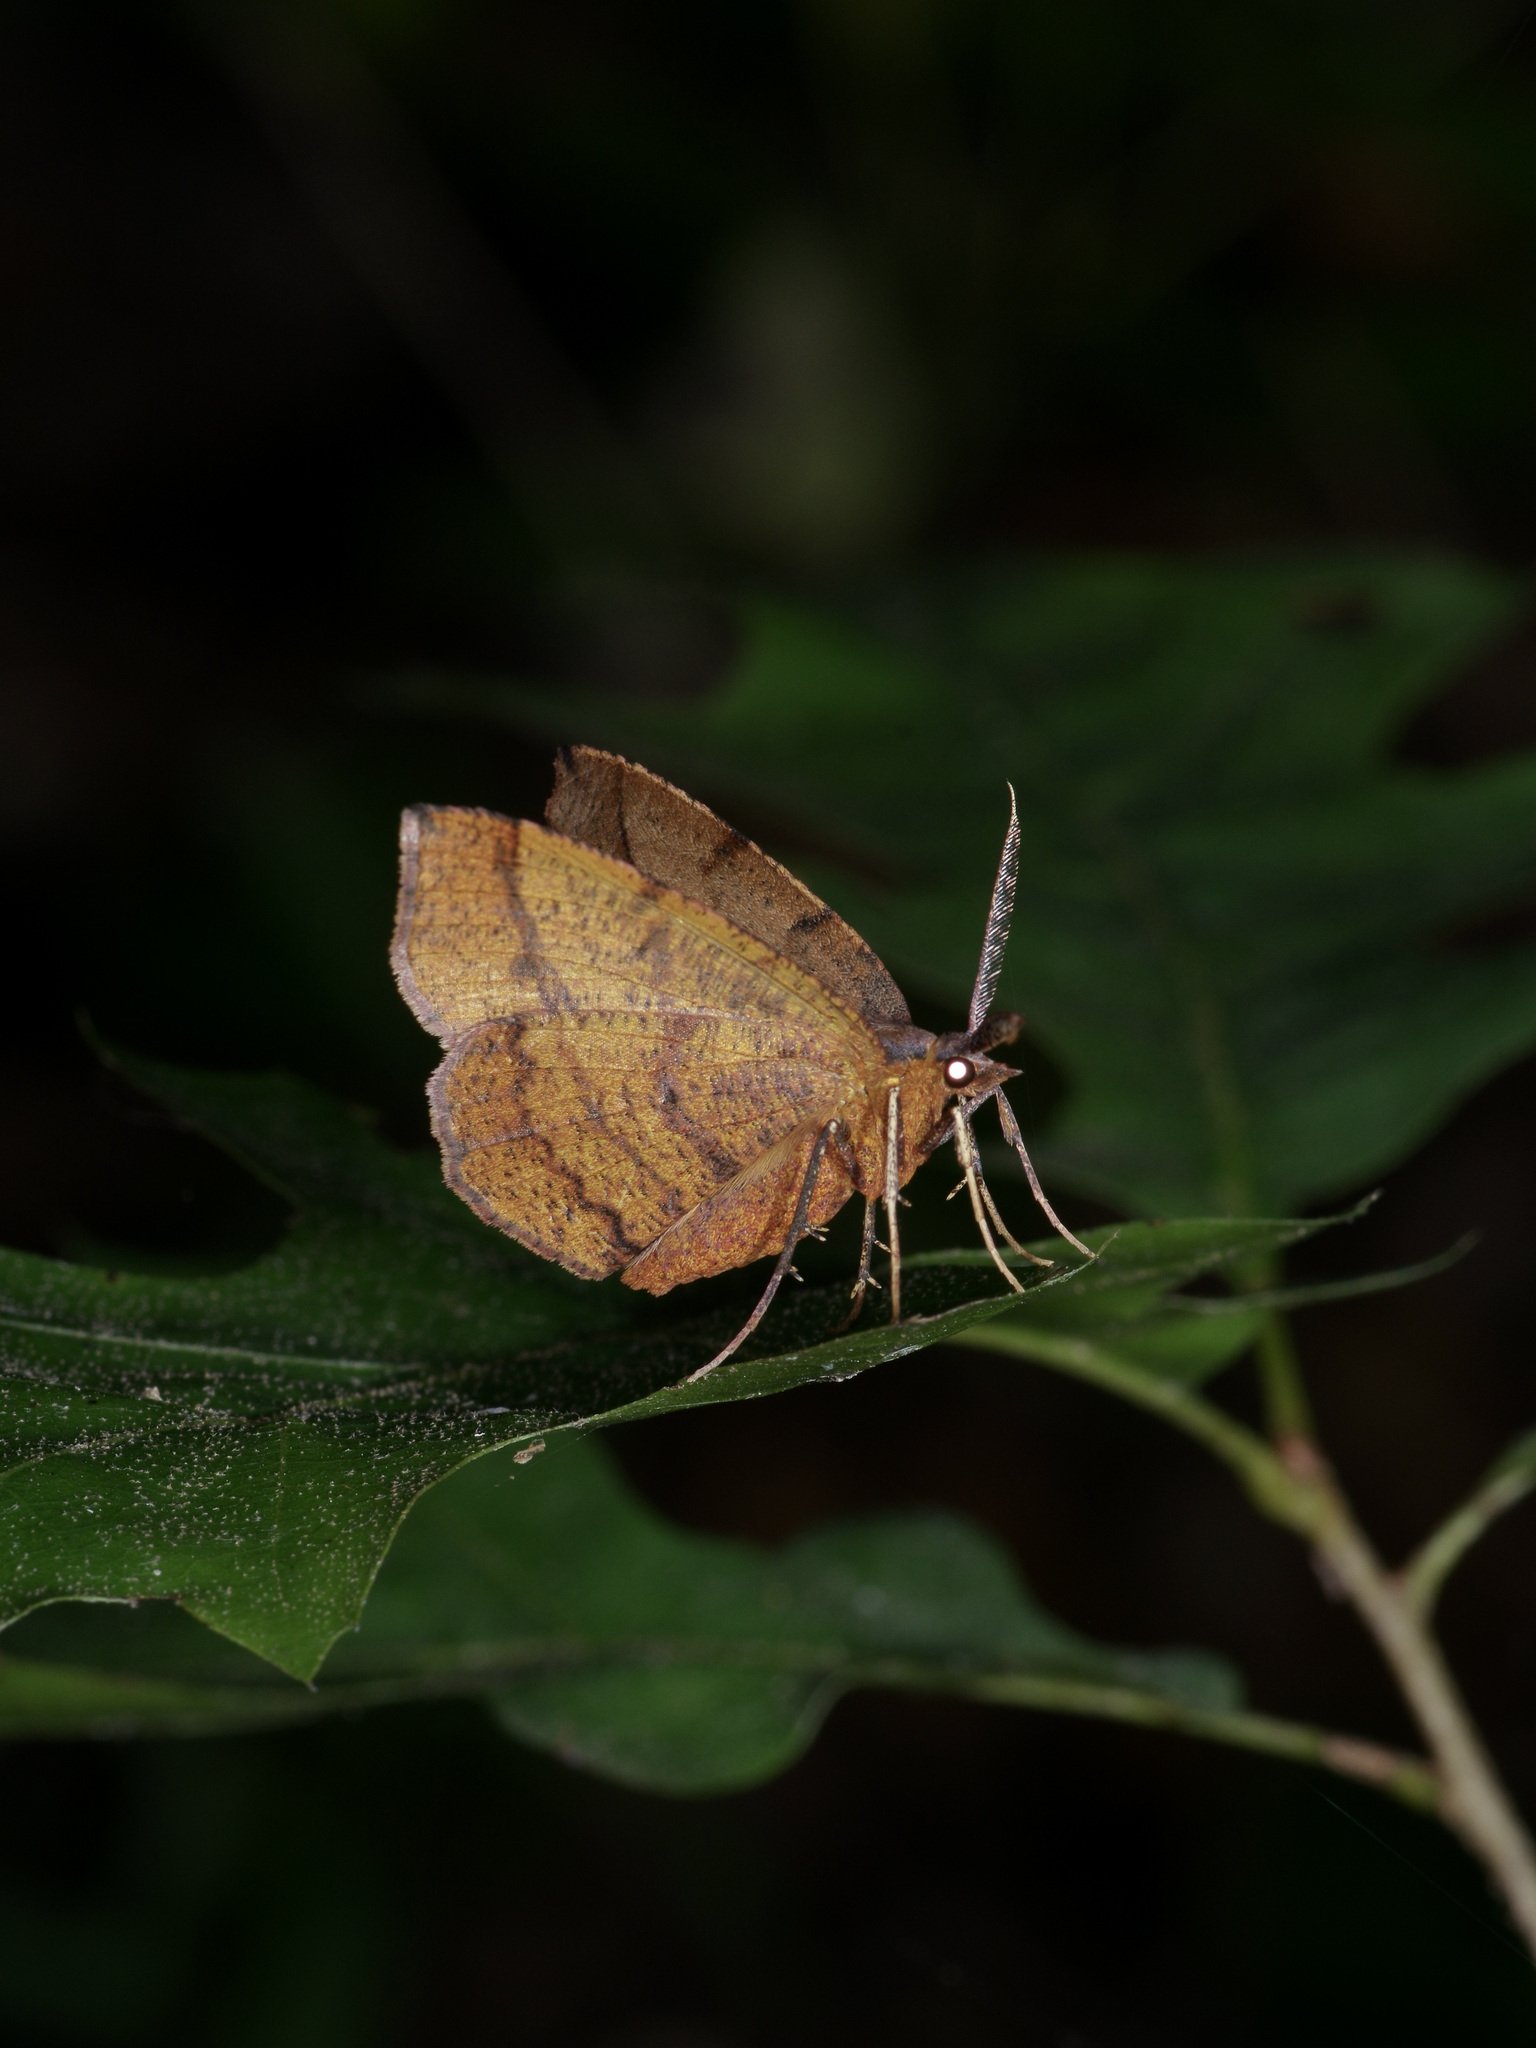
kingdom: Animalia
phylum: Arthropoda
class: Insecta
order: Lepidoptera
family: Geometridae
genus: Erastria
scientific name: Erastria cruentaria
